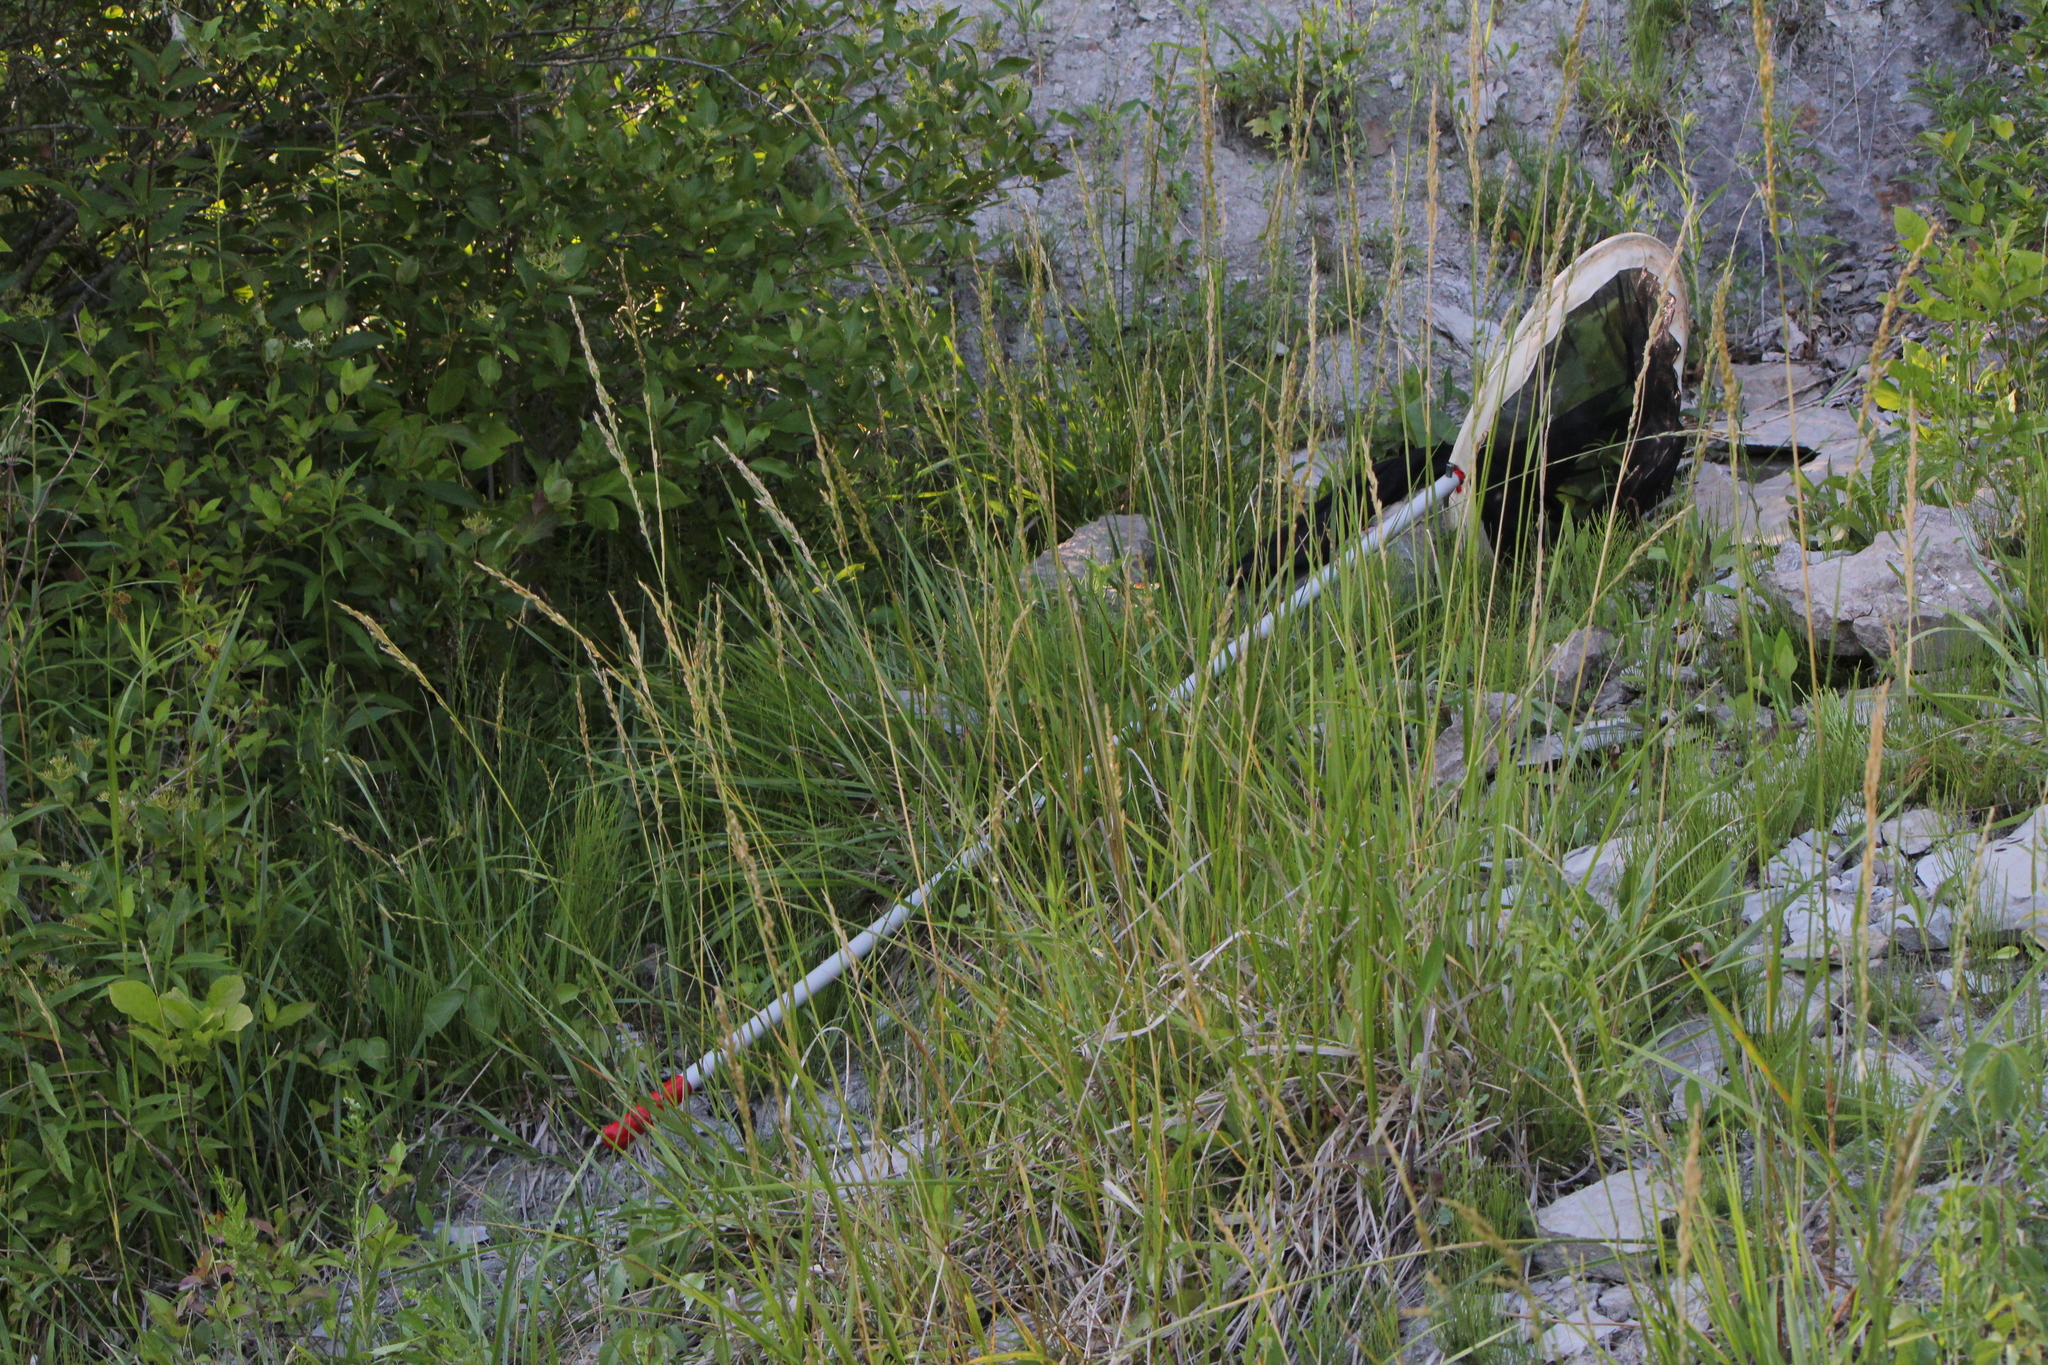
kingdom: Plantae
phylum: Tracheophyta
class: Liliopsida
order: Poales
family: Poaceae
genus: Lolium
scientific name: Lolium arundinaceum
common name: Reed fescue
